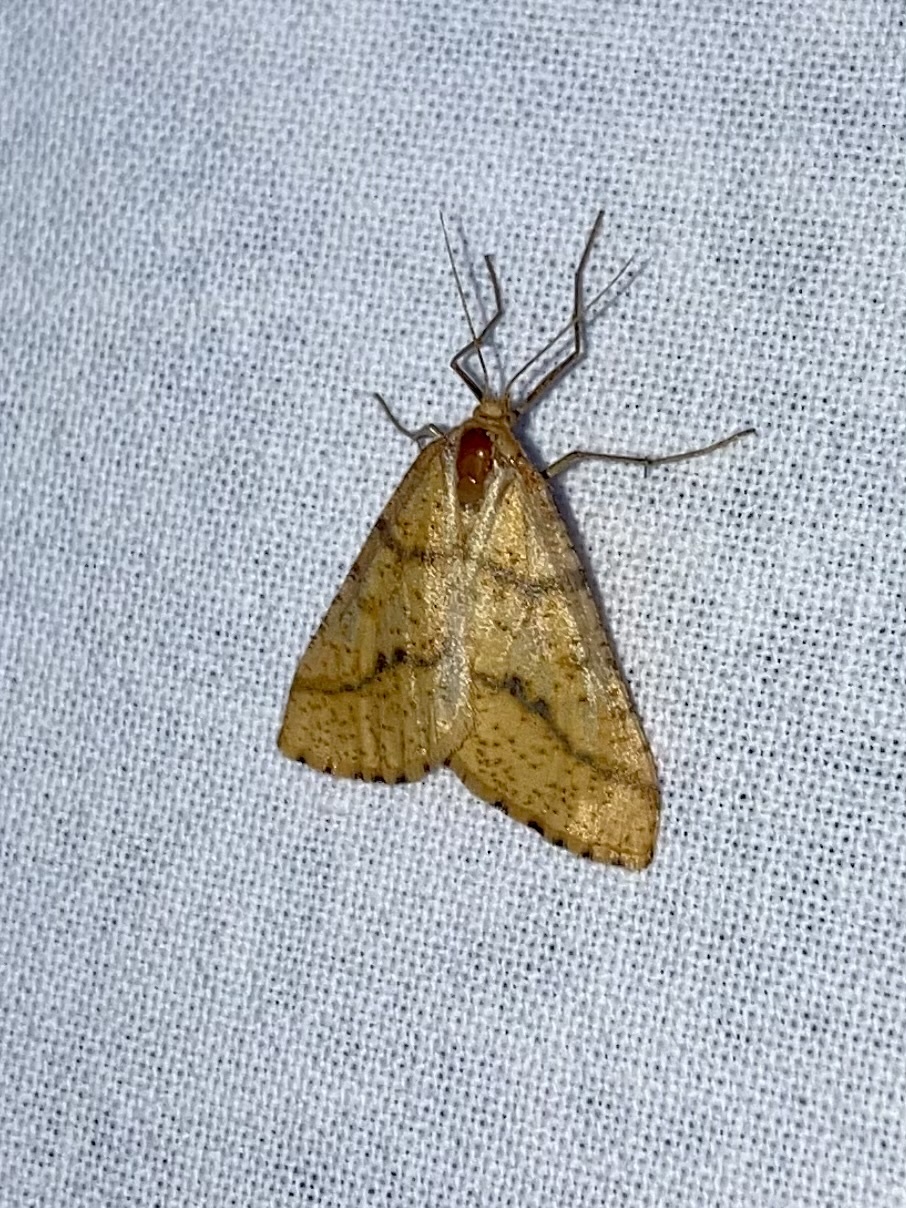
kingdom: Animalia
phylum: Arthropoda
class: Insecta
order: Lepidoptera
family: Geometridae
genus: Aspitates
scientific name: Aspitates ochrearia
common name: Yellow belle
